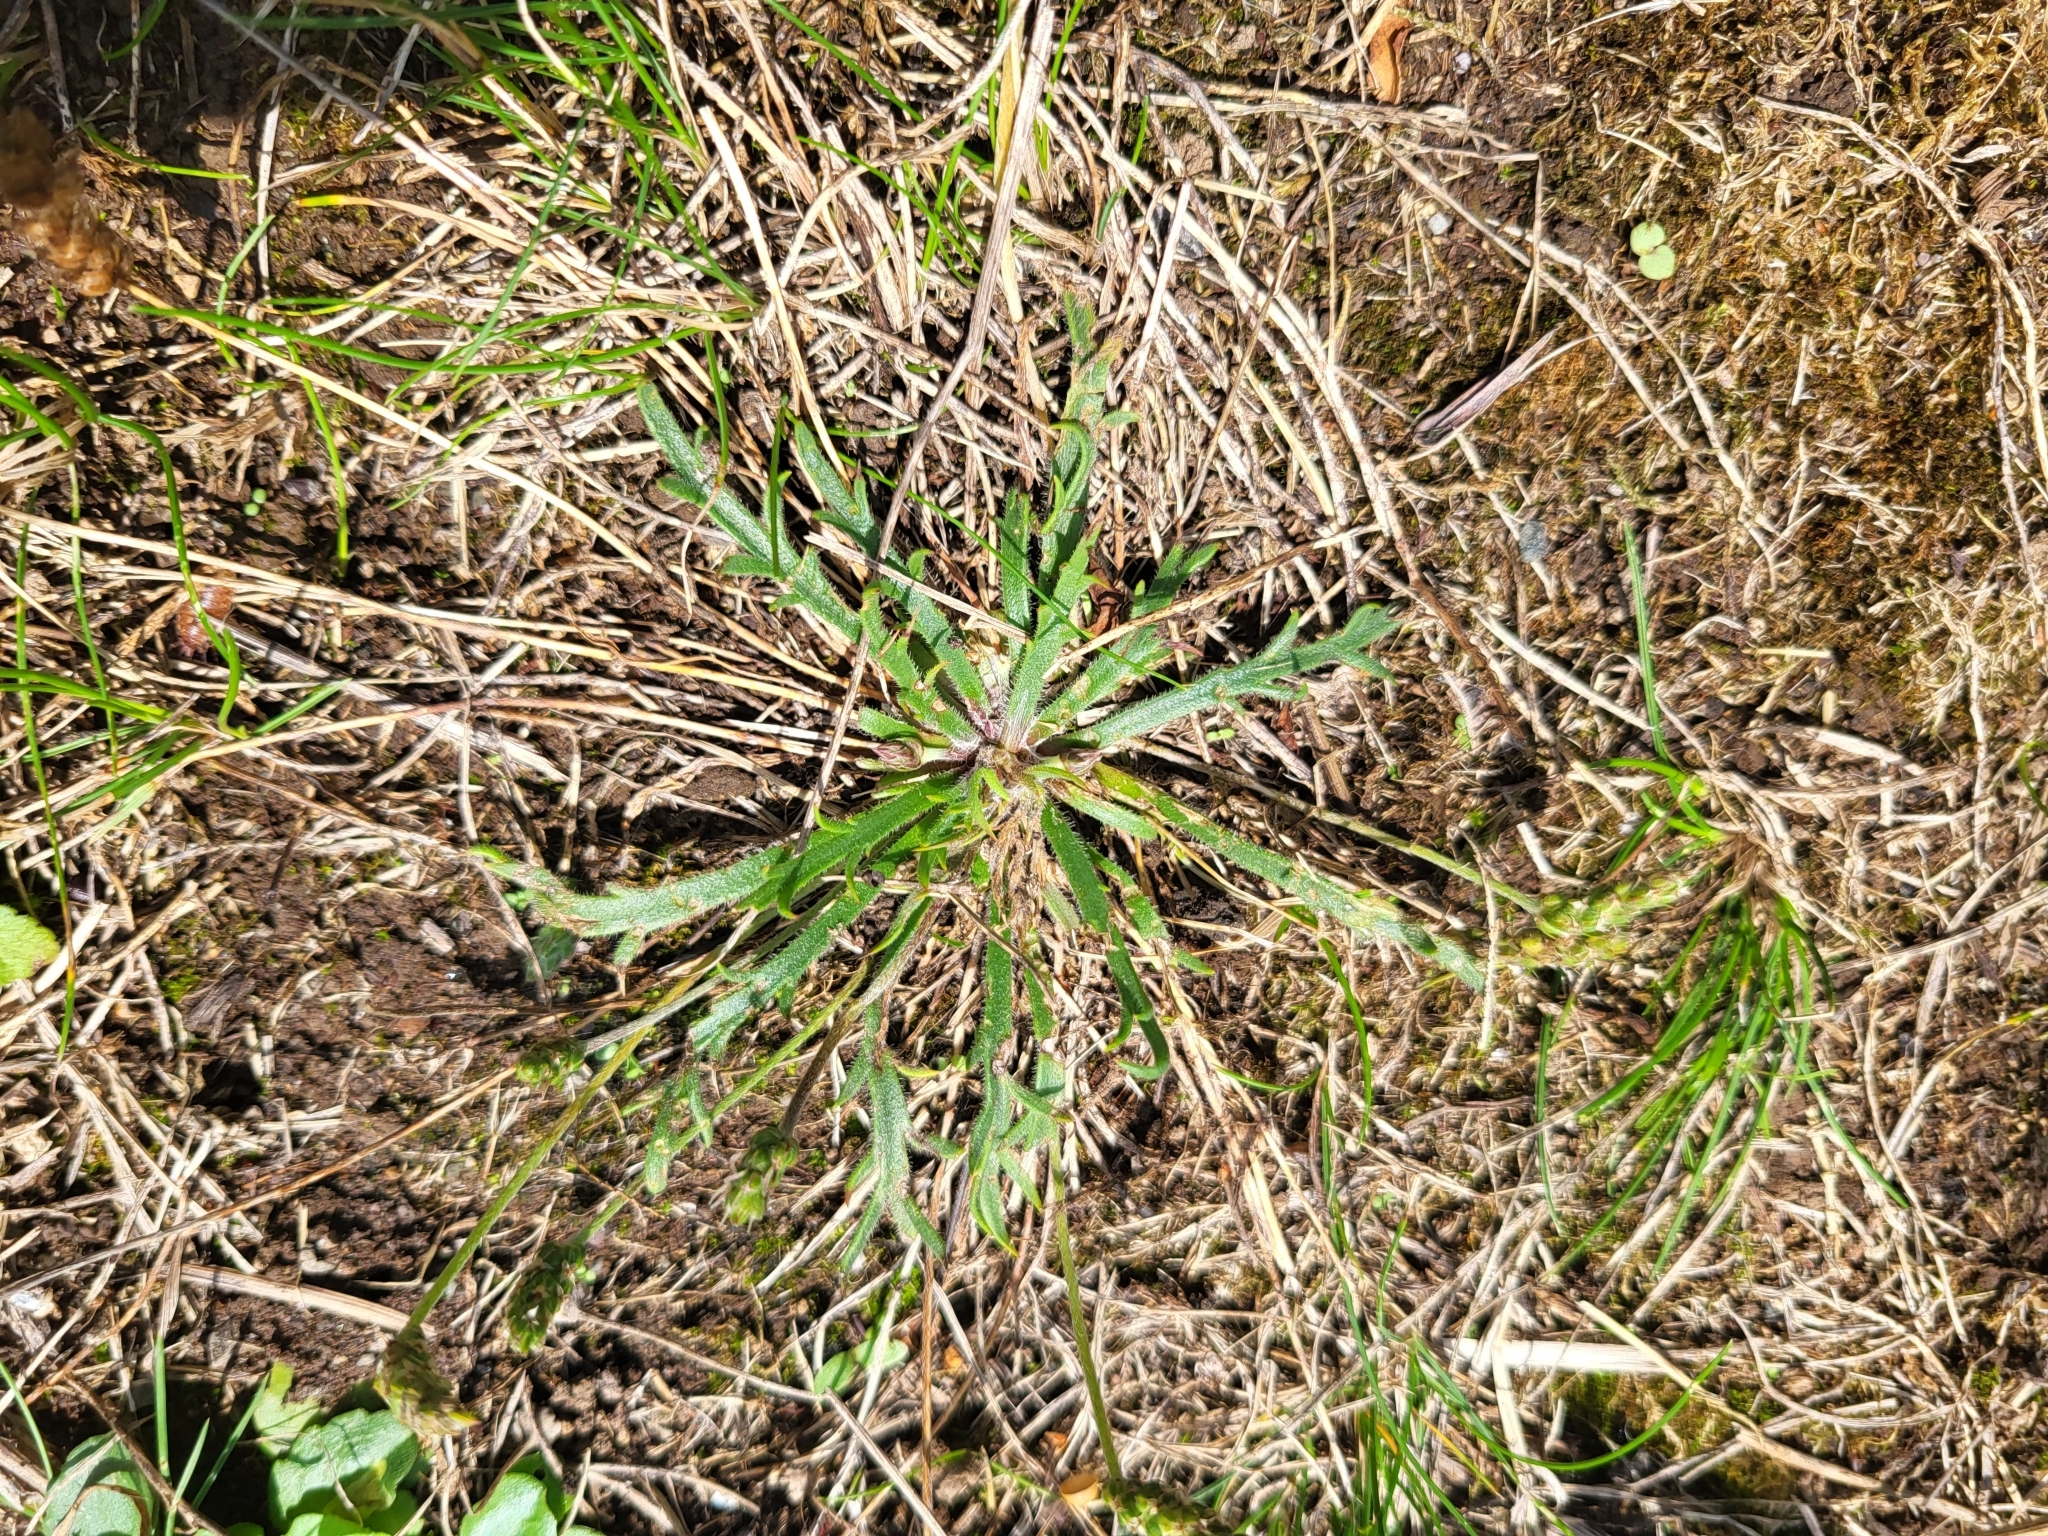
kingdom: Plantae
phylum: Tracheophyta
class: Magnoliopsida
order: Lamiales
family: Plantaginaceae
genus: Plantago
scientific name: Plantago coronopus
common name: Buck's-horn plantain
